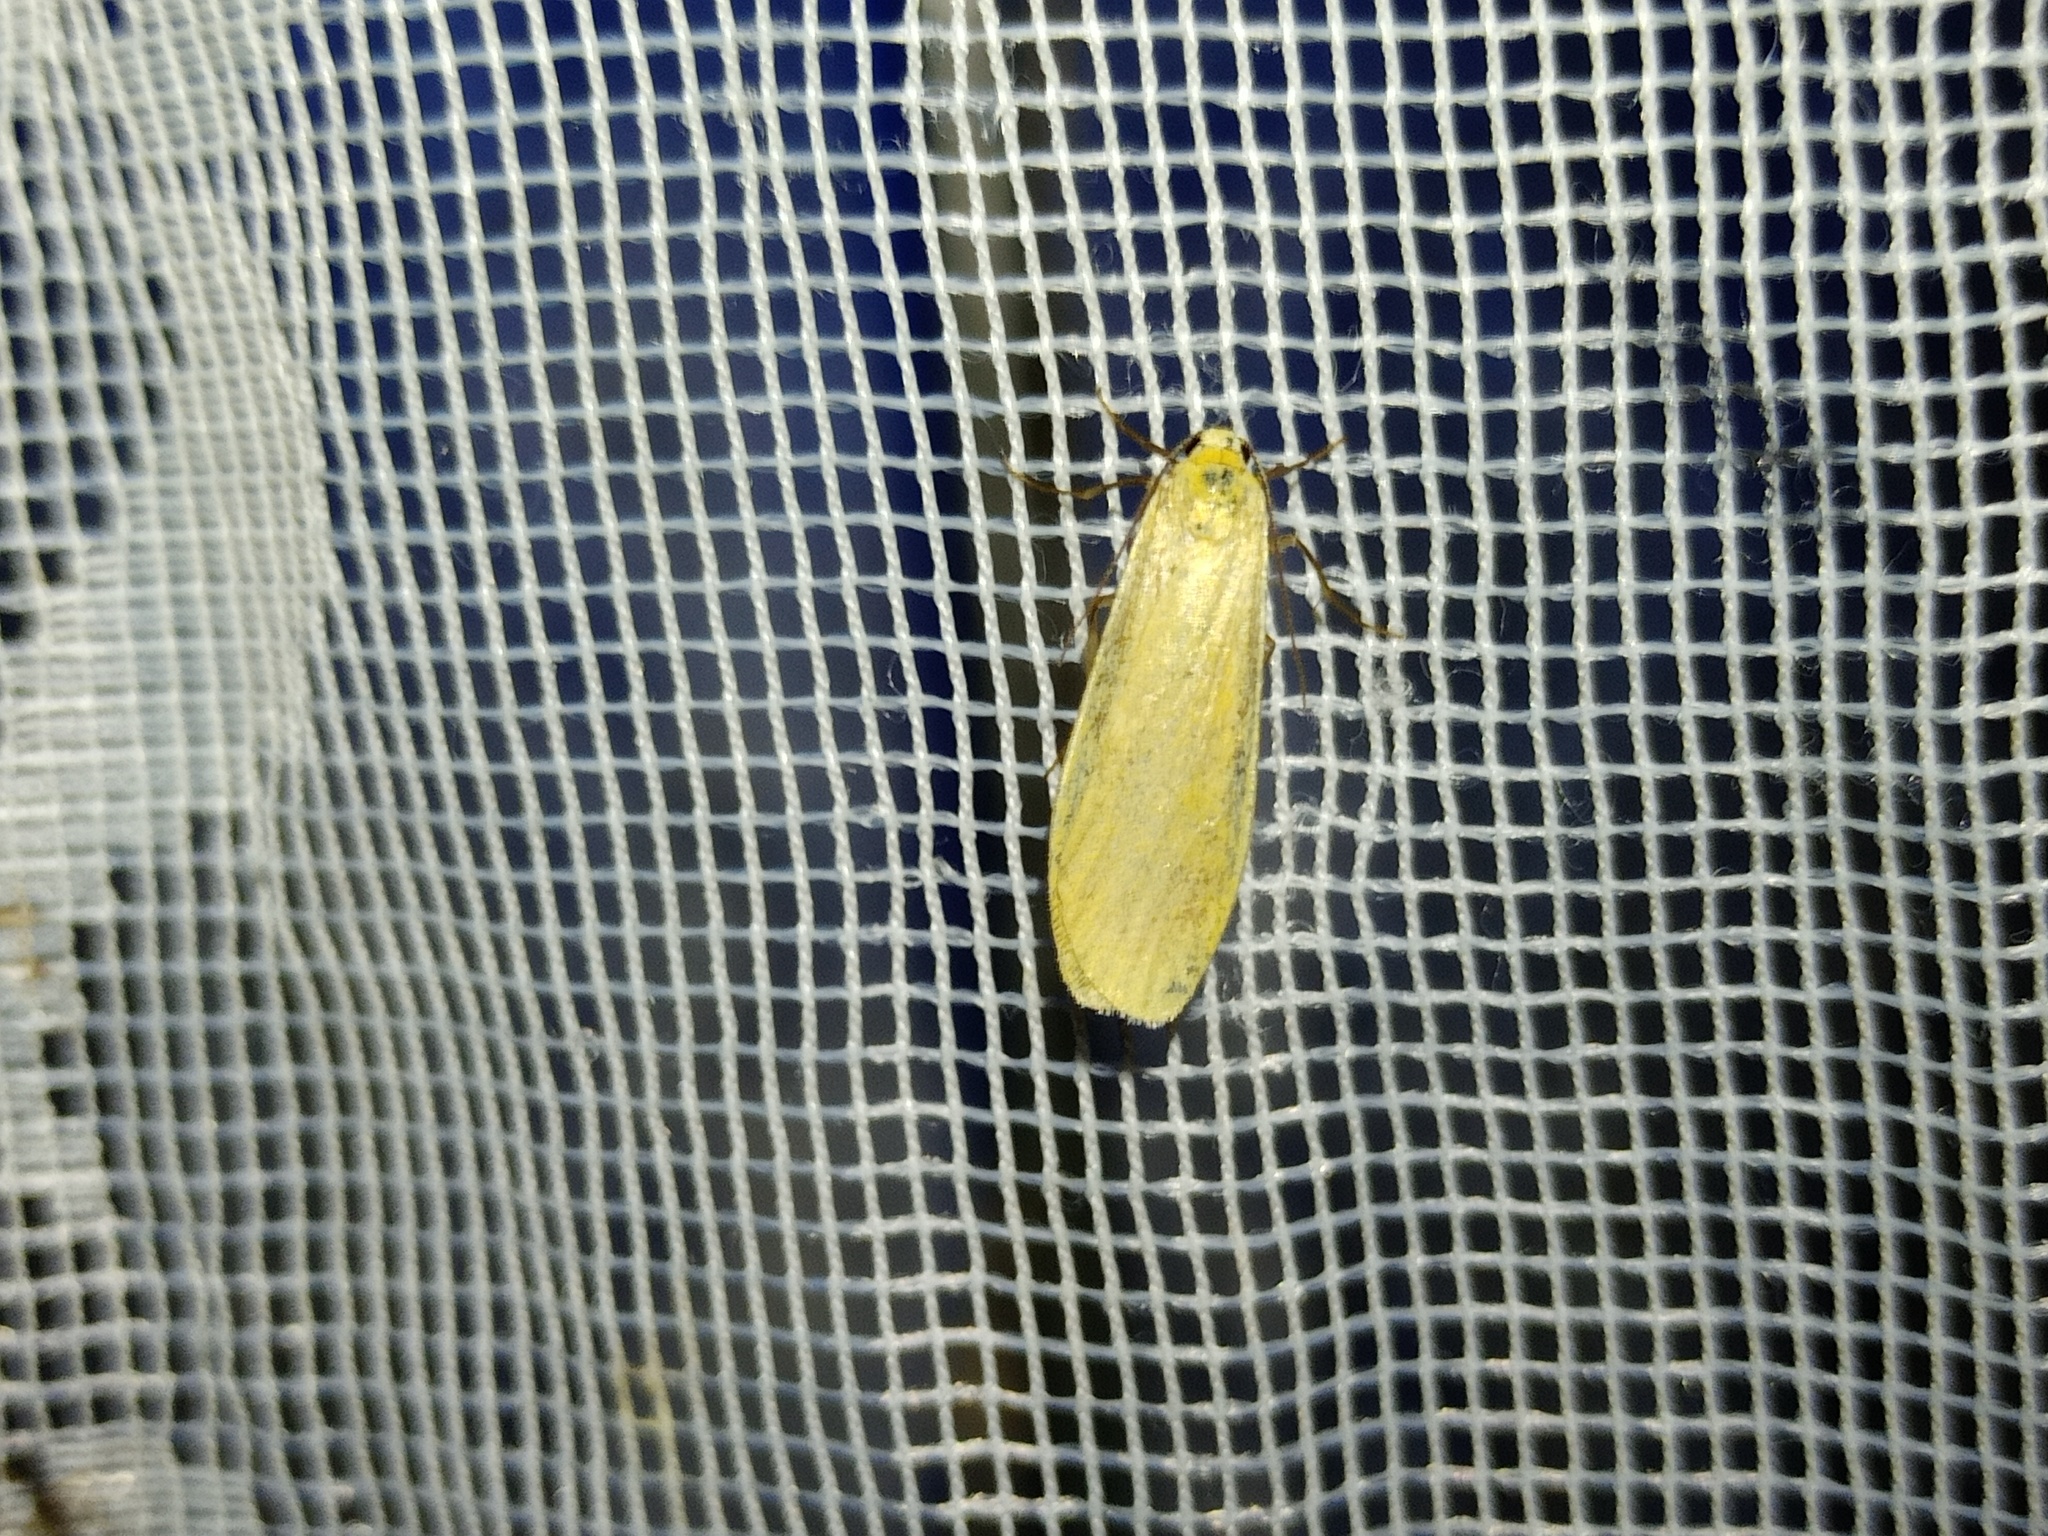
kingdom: Animalia
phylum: Arthropoda
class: Insecta
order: Lepidoptera
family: Erebidae
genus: Wittia
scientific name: Wittia sororcula
